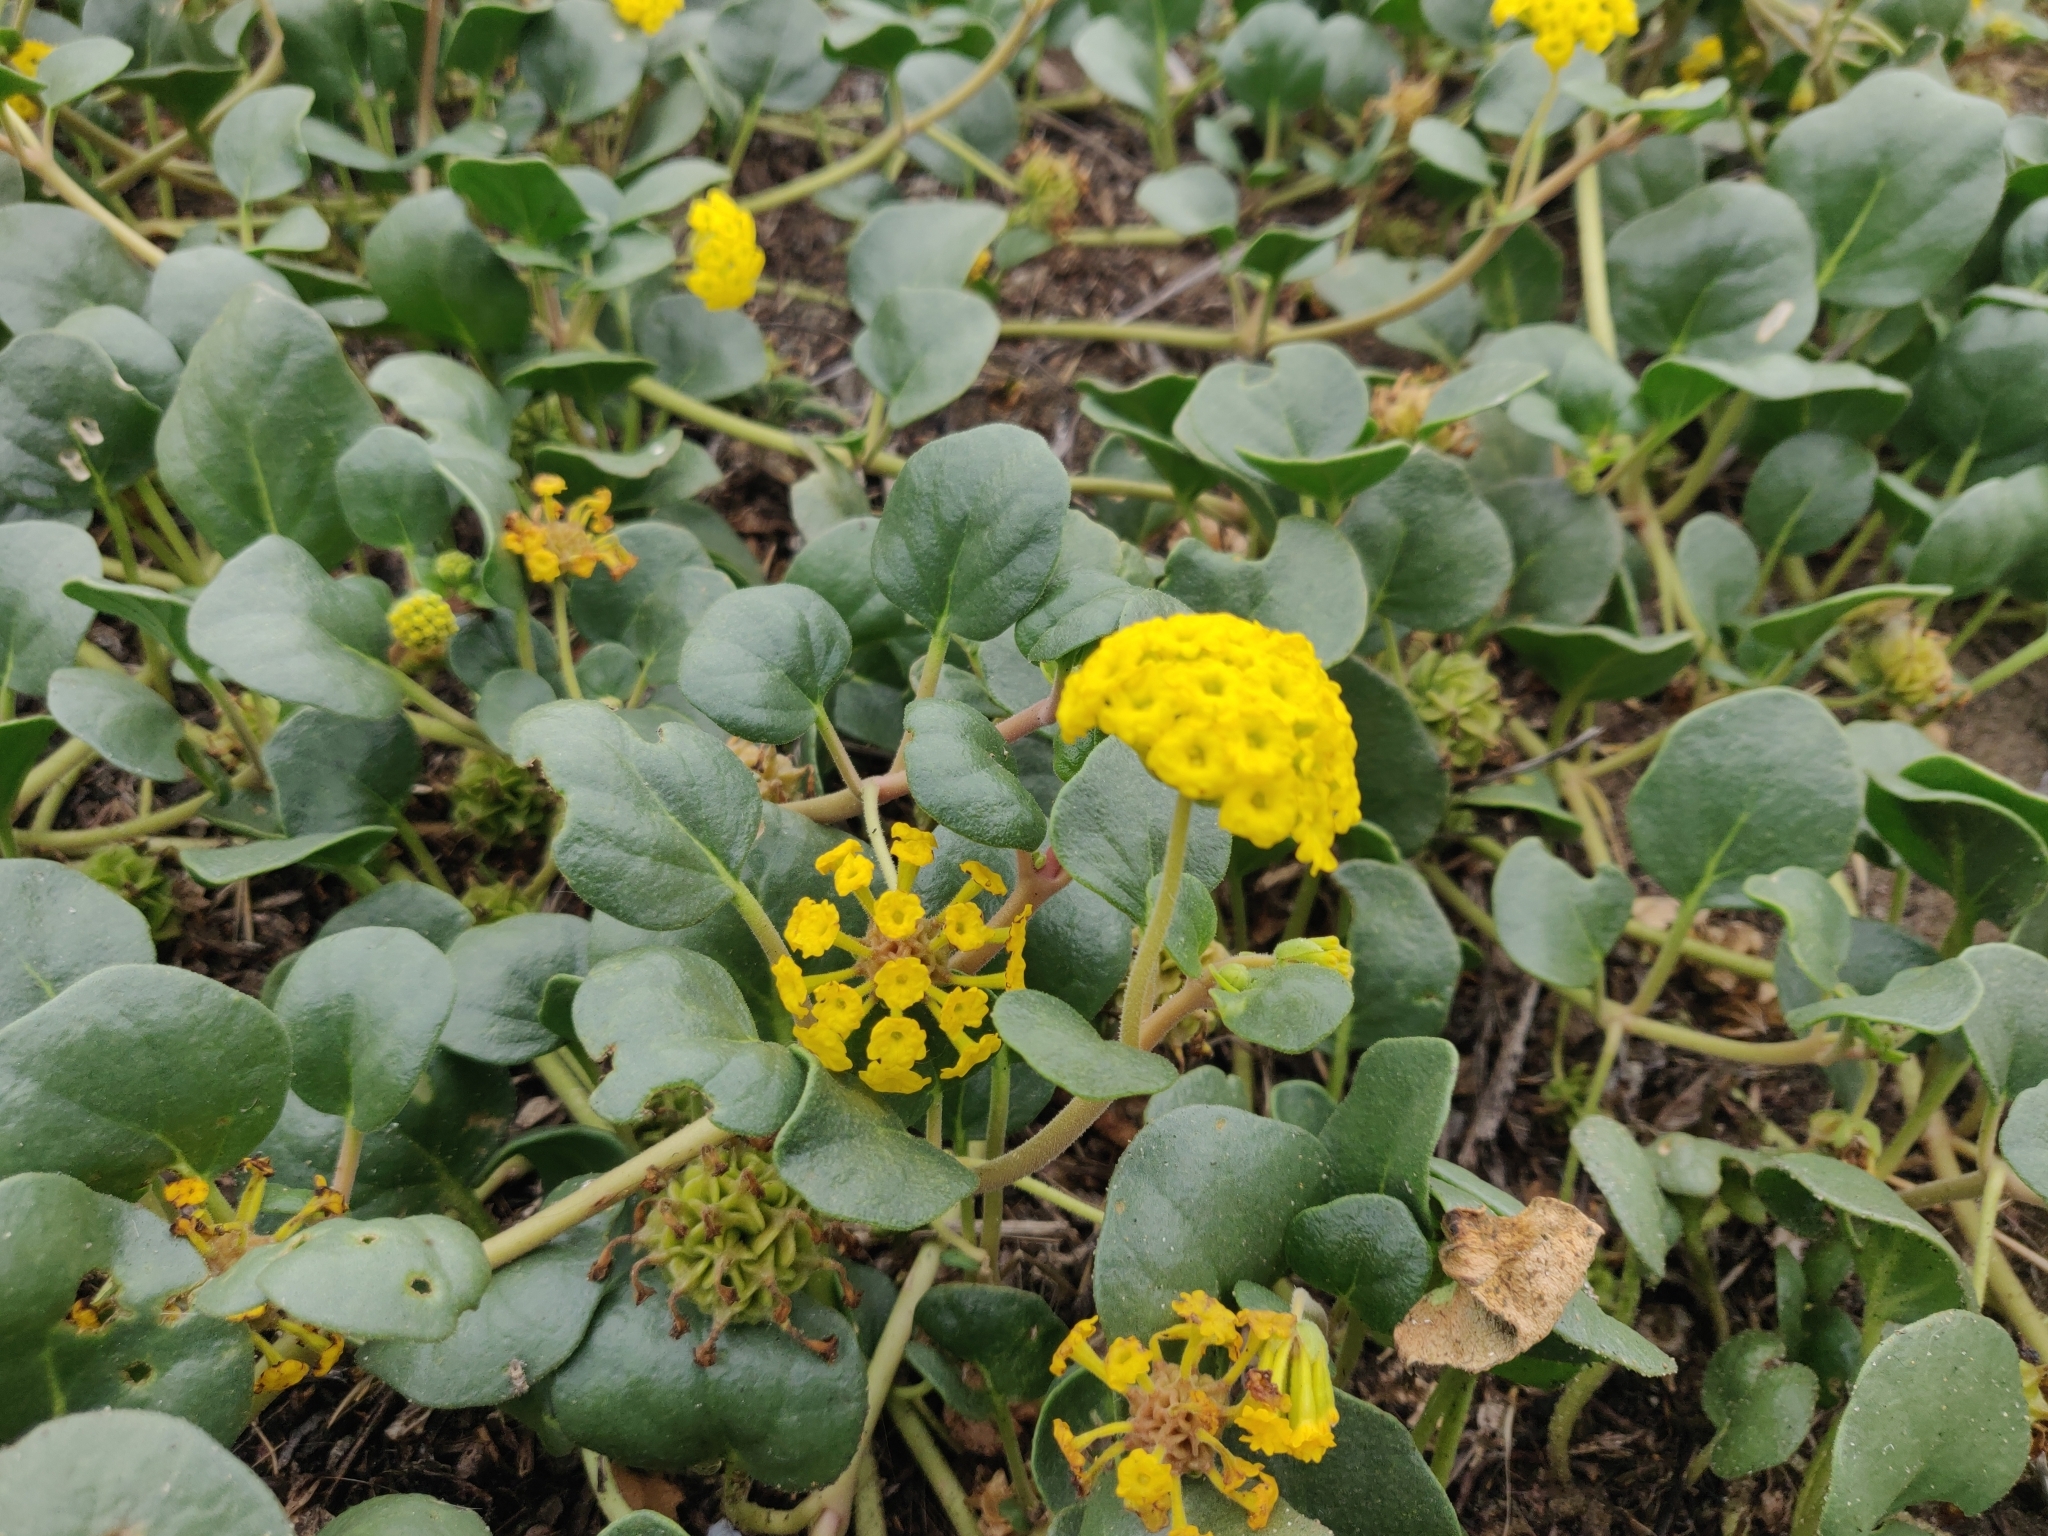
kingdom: Plantae
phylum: Tracheophyta
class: Magnoliopsida
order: Caryophyllales
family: Nyctaginaceae
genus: Abronia
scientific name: Abronia latifolia
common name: Yellow sand-verbena
